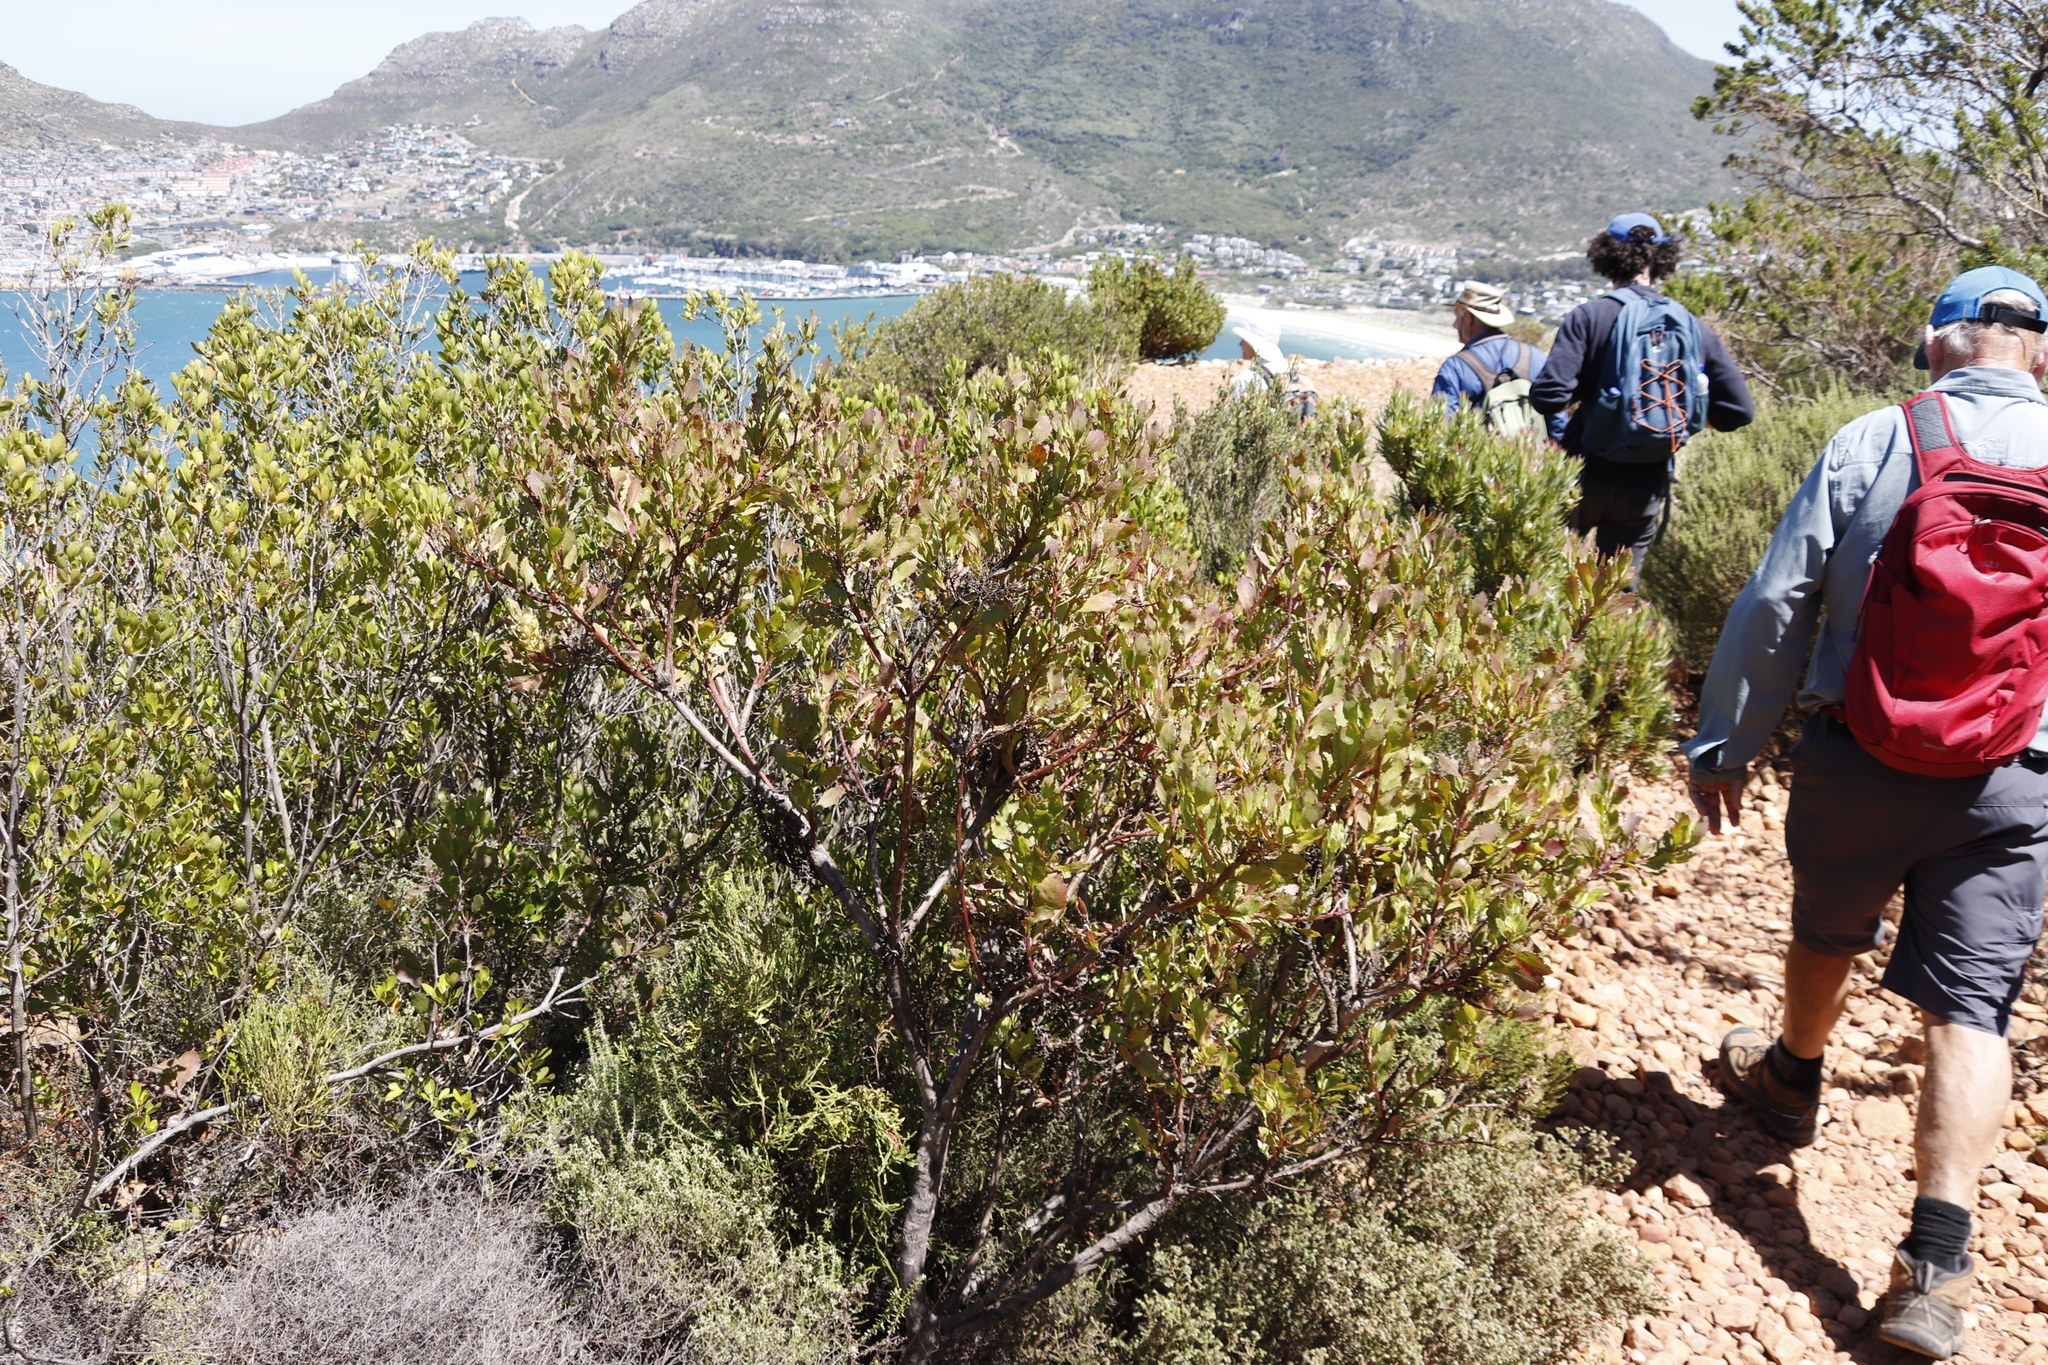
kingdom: Plantae
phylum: Tracheophyta
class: Magnoliopsida
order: Asterales
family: Asteraceae
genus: Osteospermum
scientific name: Osteospermum moniliferum
